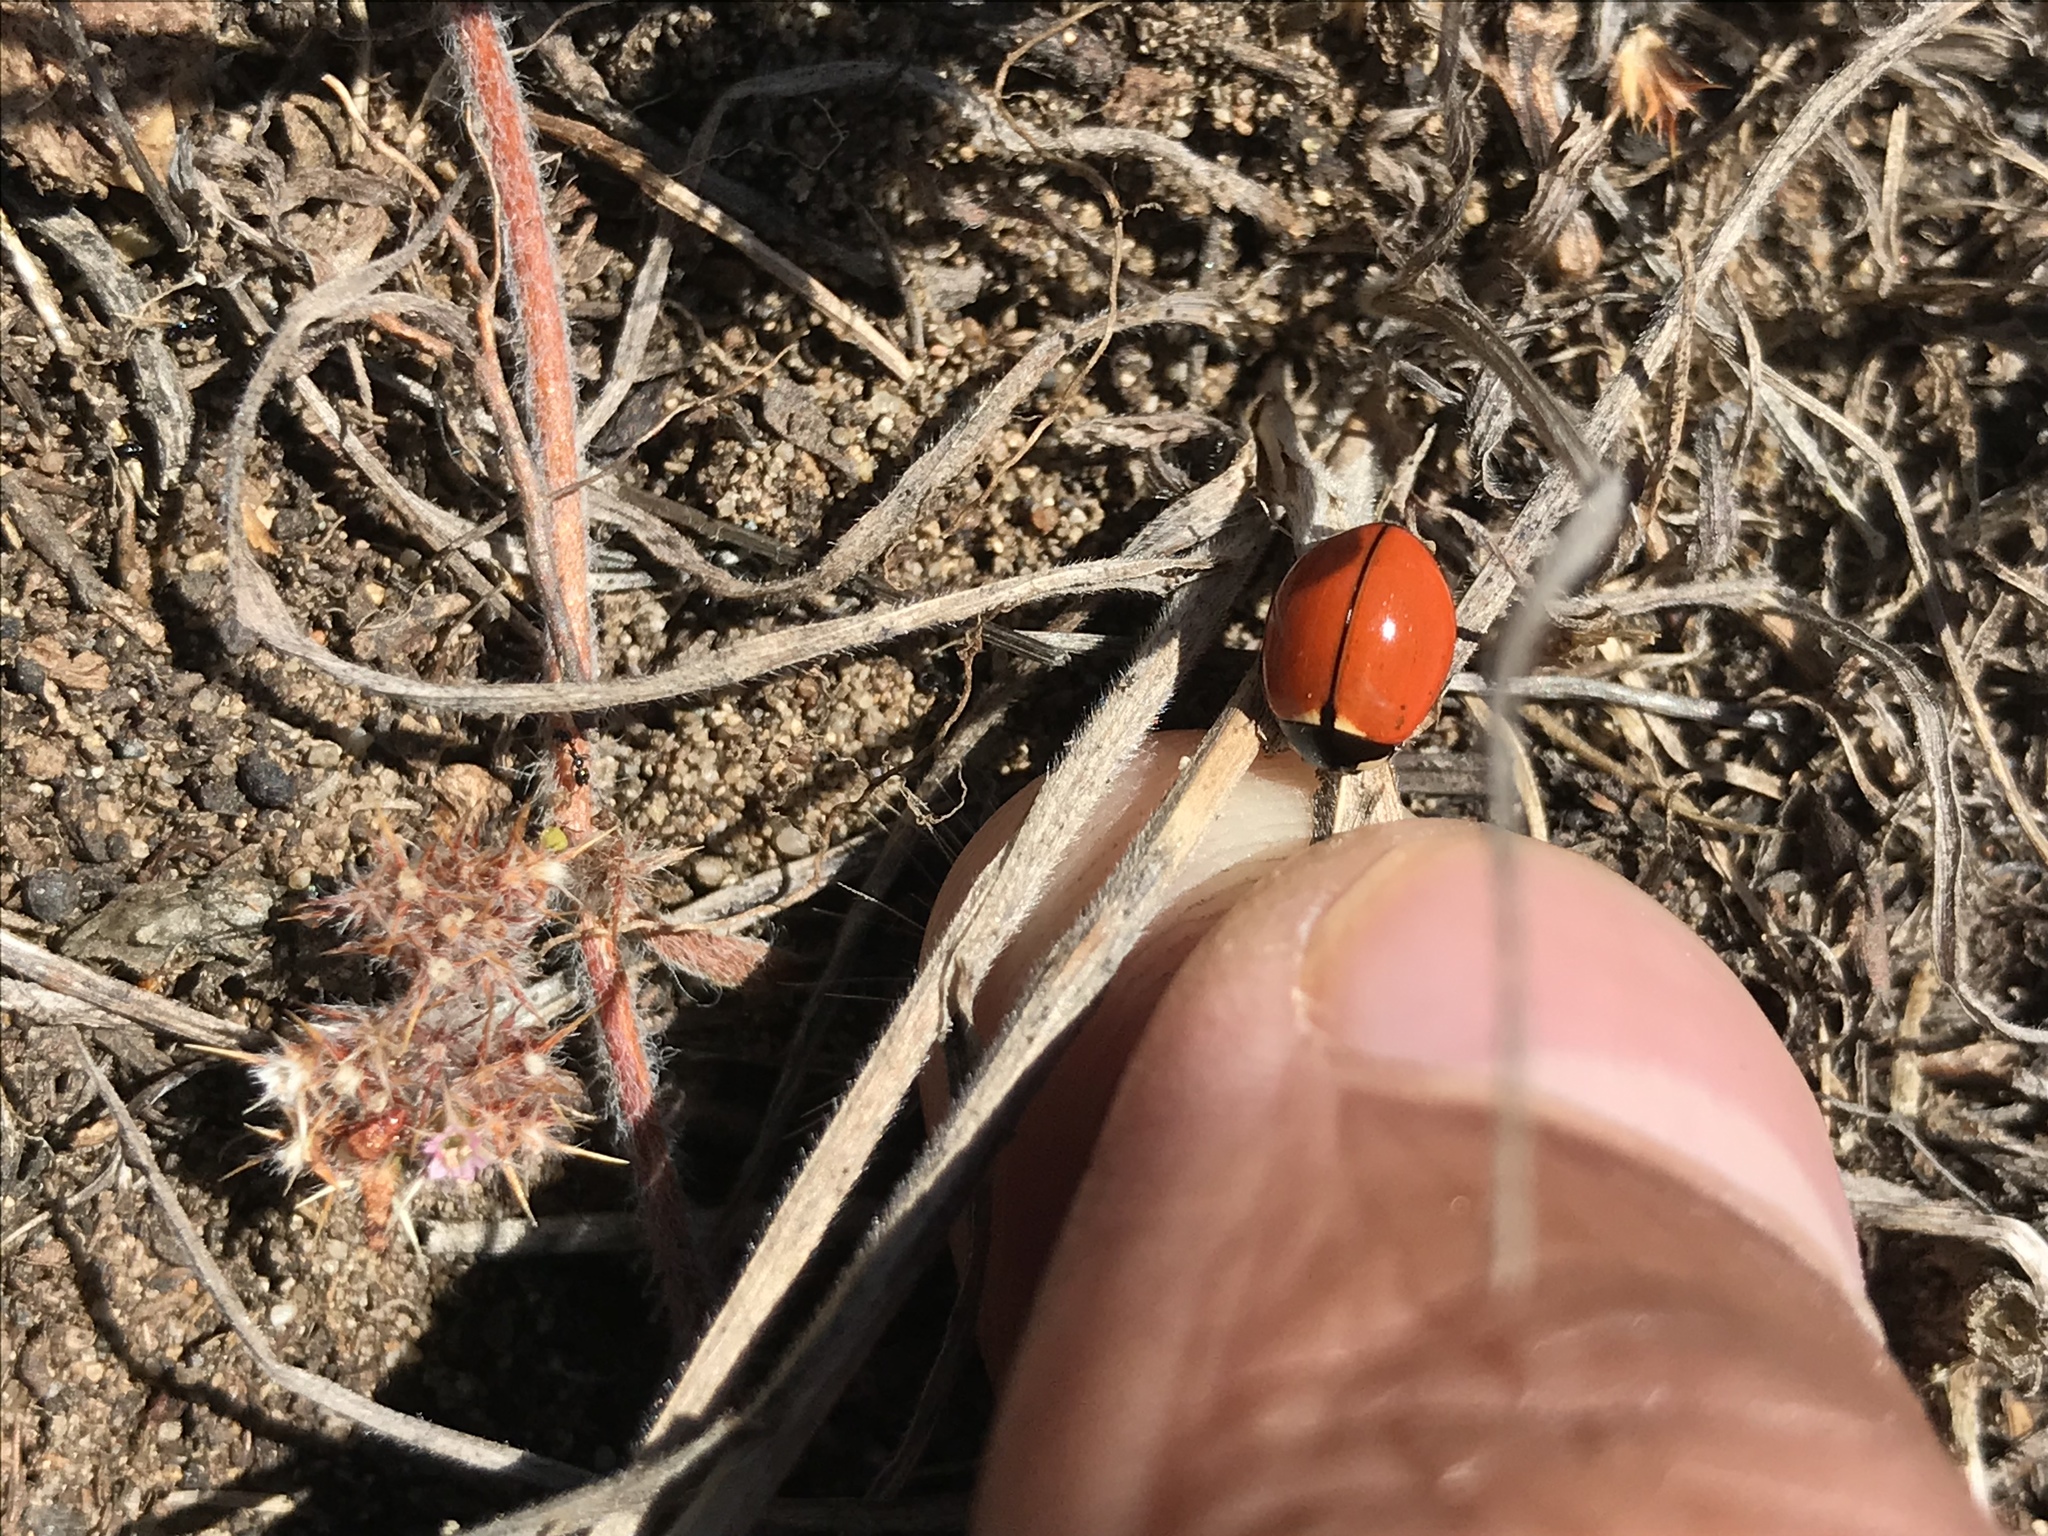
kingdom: Animalia
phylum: Arthropoda
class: Insecta
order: Coleoptera
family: Coccinellidae
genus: Coccinella
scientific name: Coccinella californica
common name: Lady beetle
